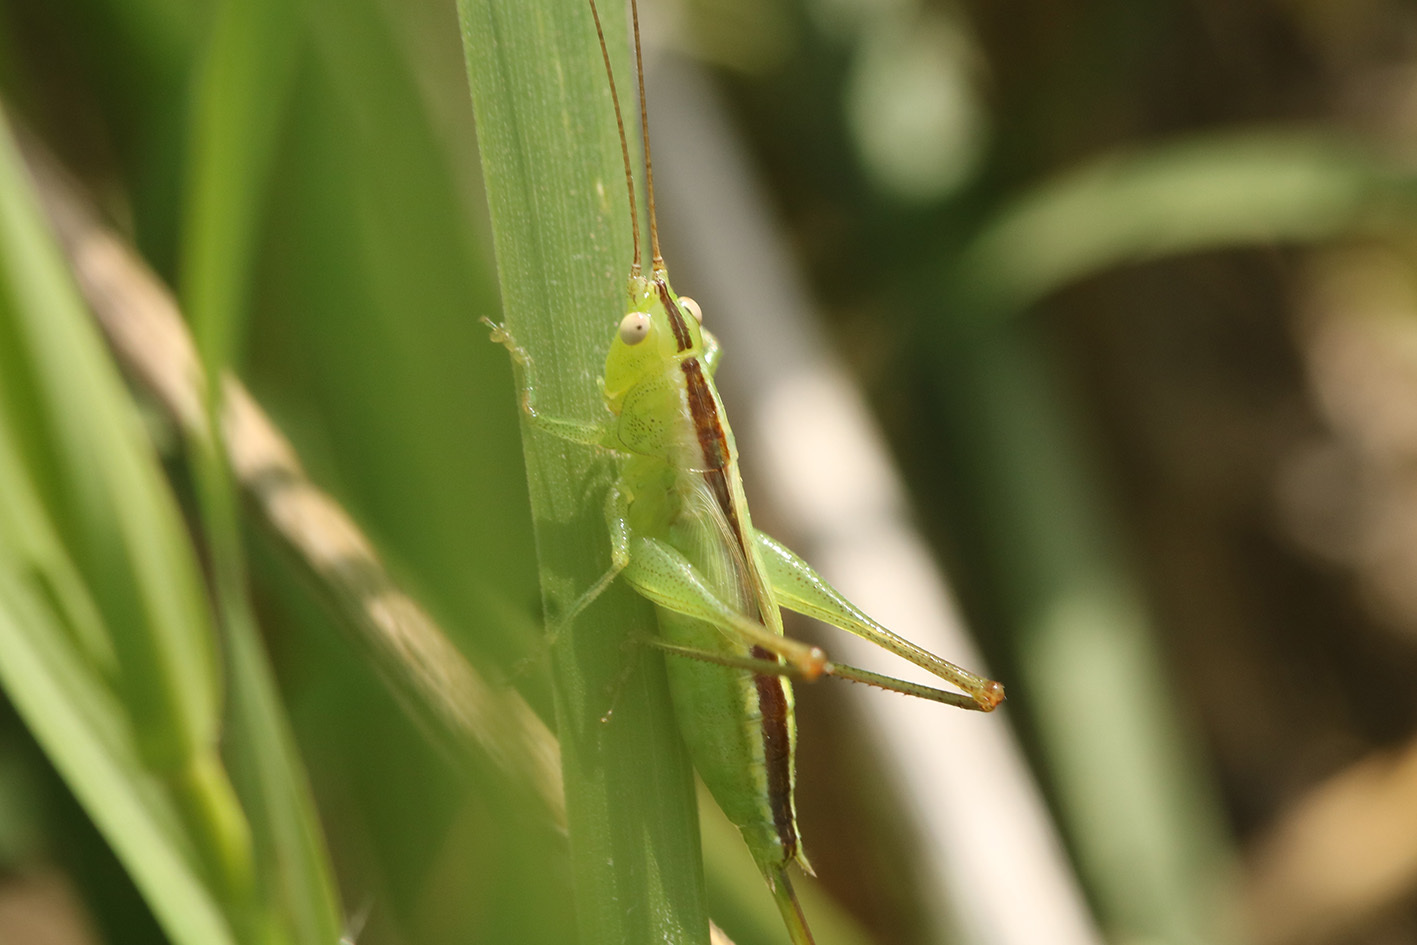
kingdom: Animalia
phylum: Arthropoda
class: Insecta
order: Orthoptera
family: Tettigoniidae
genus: Conocephalus
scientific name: Conocephalus longipes
